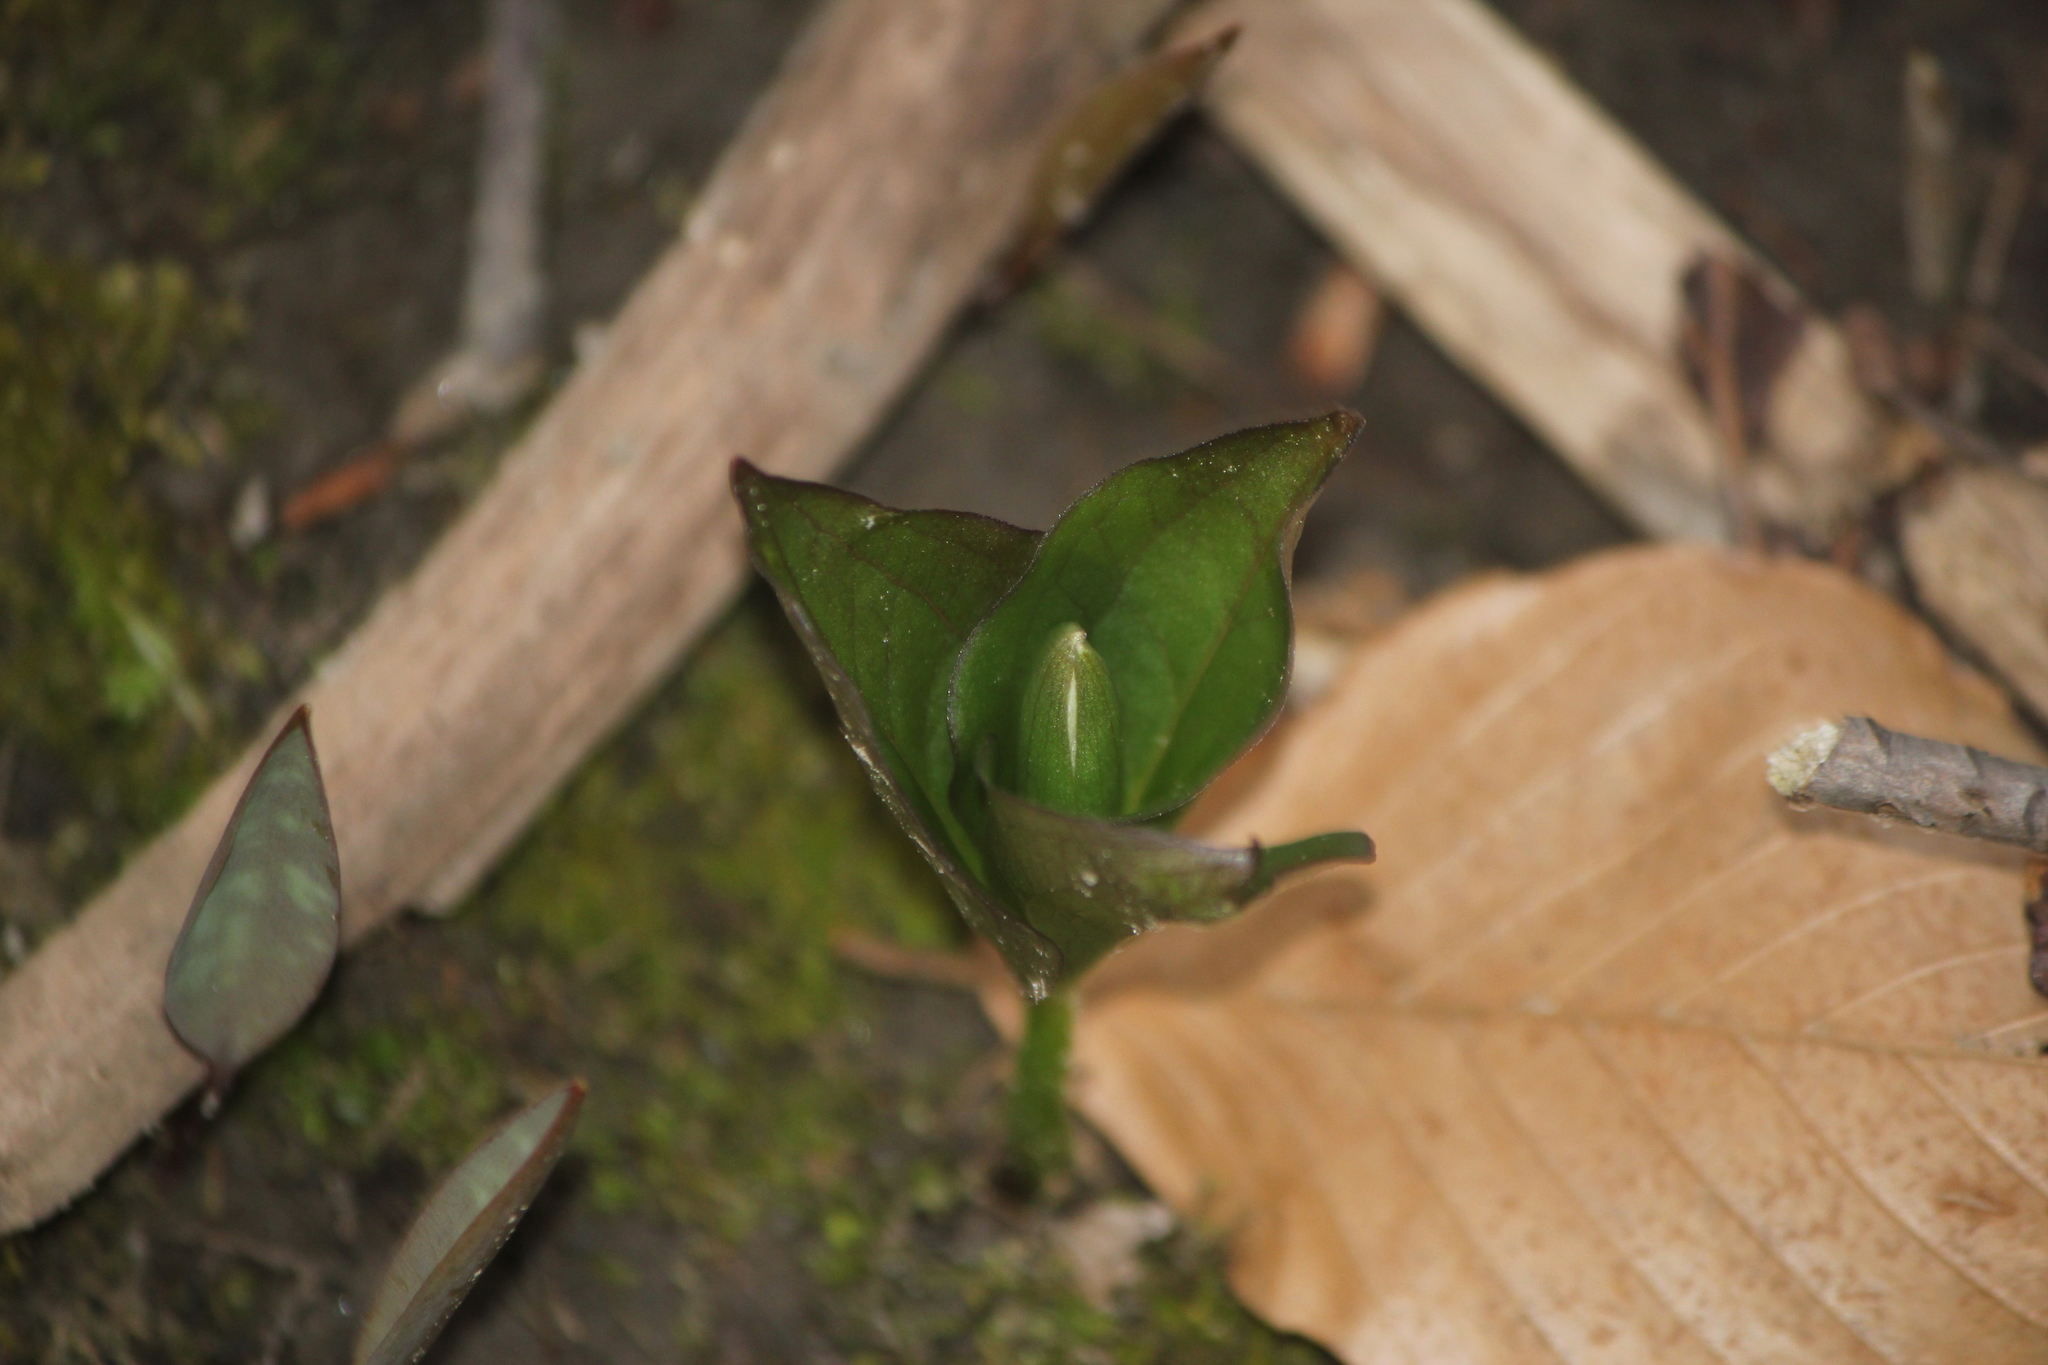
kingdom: Plantae
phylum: Tracheophyta
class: Liliopsida
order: Liliales
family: Melanthiaceae
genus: Trillium
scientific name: Trillium grandiflorum
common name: Great white trillium
